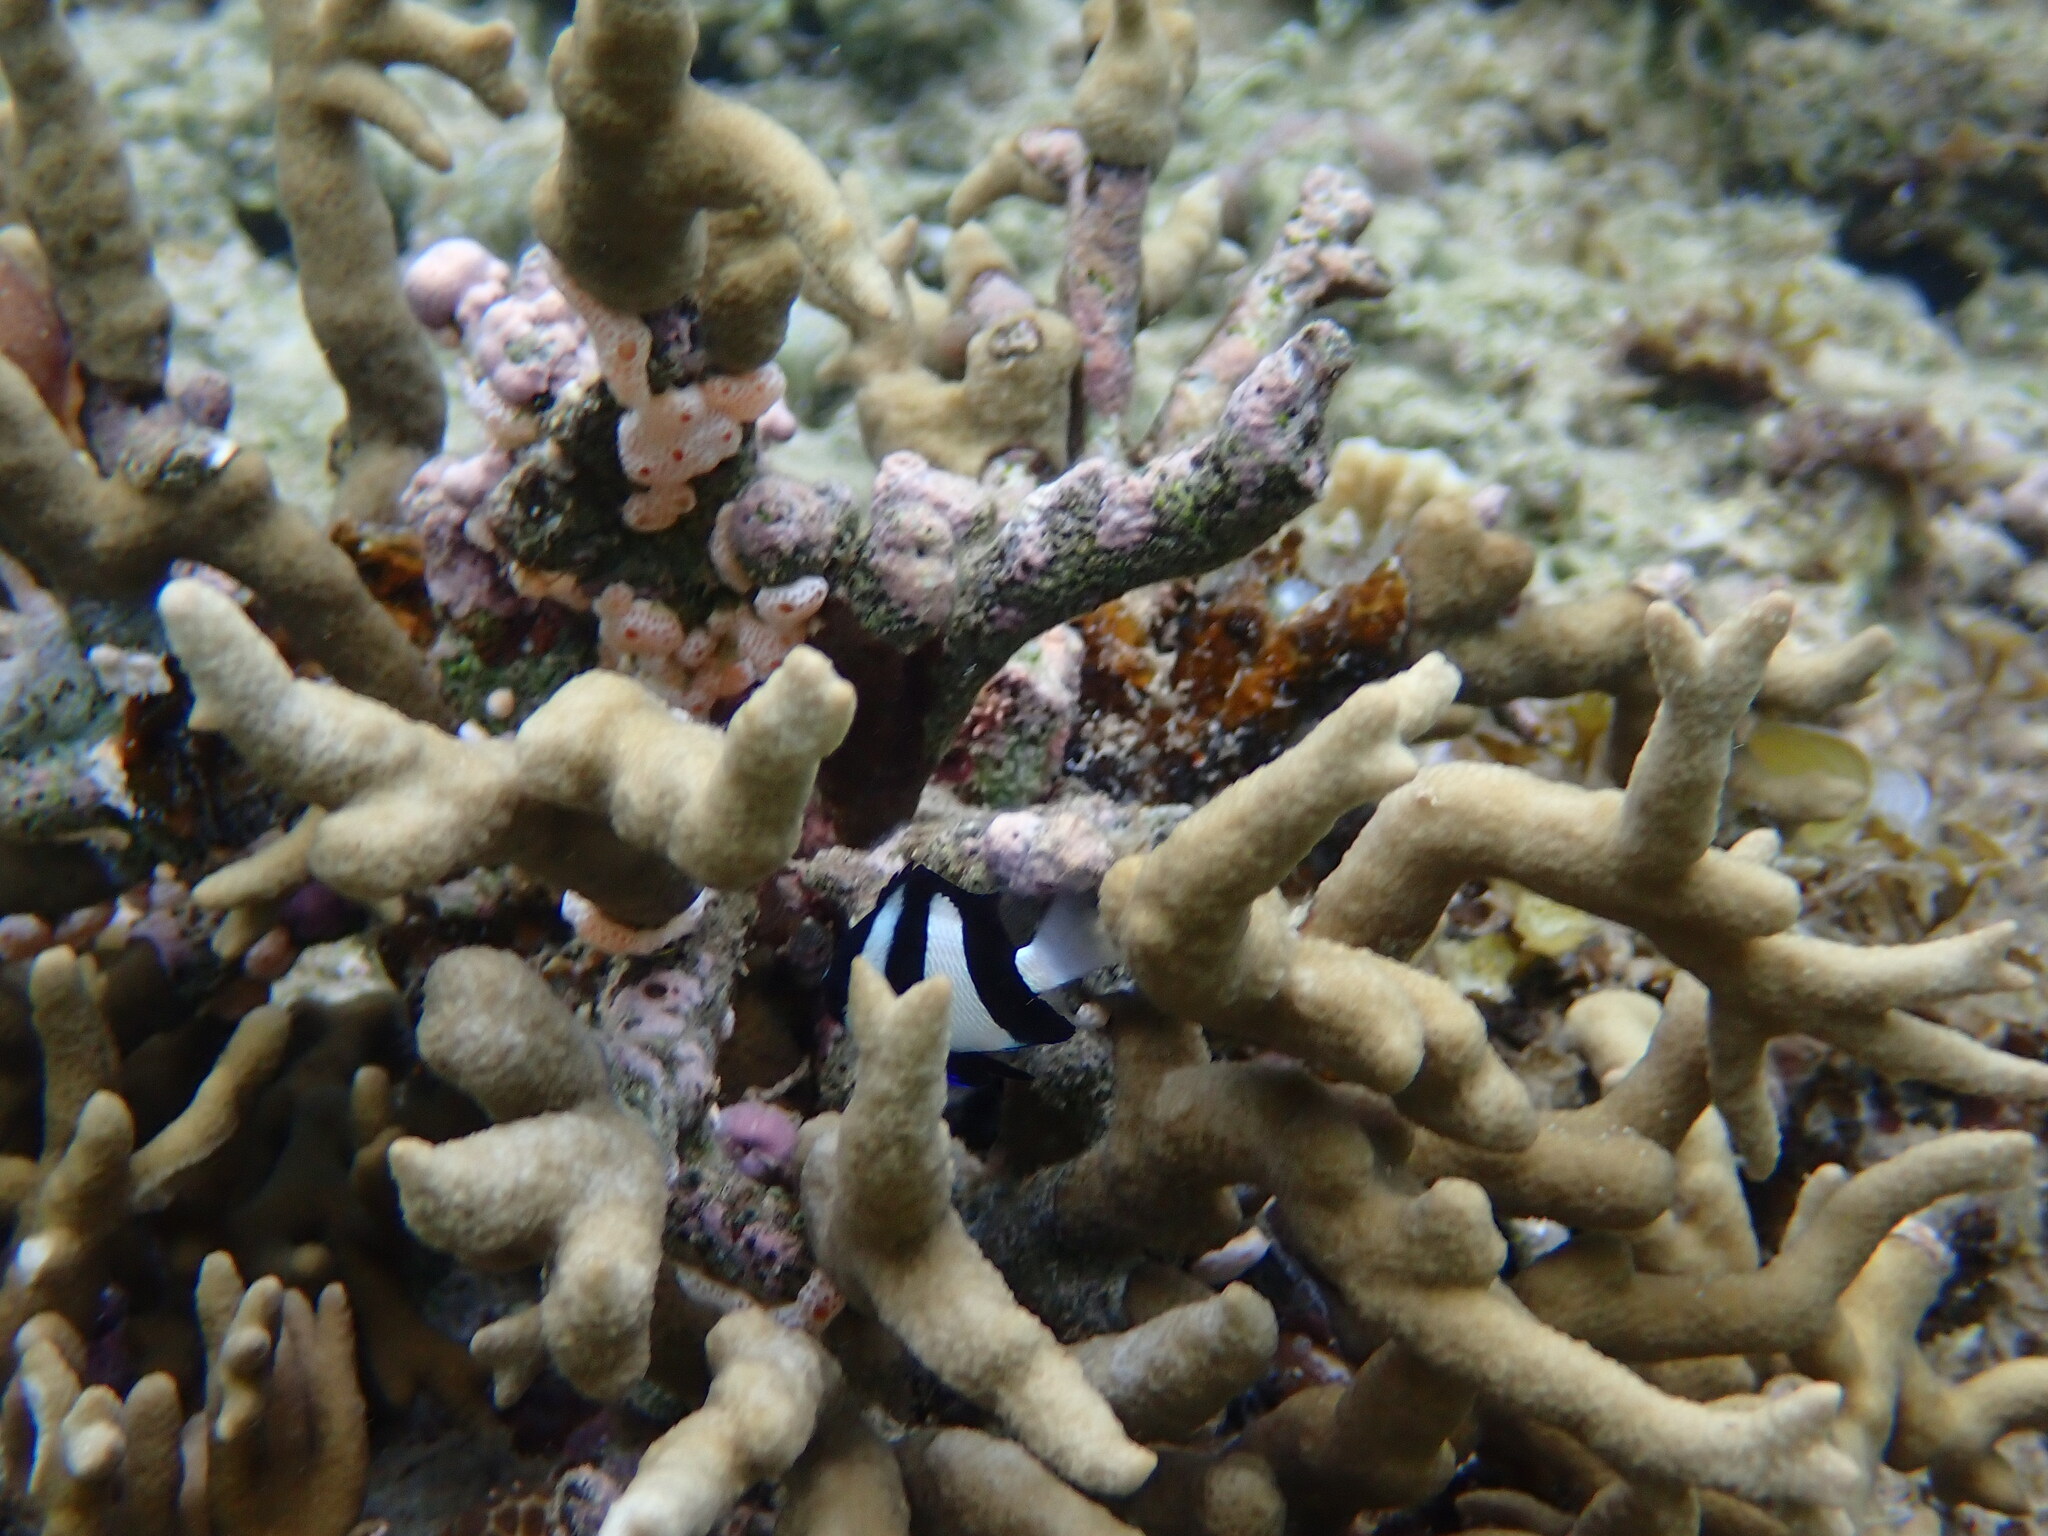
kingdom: Animalia
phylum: Chordata
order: Perciformes
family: Pomacentridae
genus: Dascyllus
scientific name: Dascyllus aruanus
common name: Humbug dascyllus
